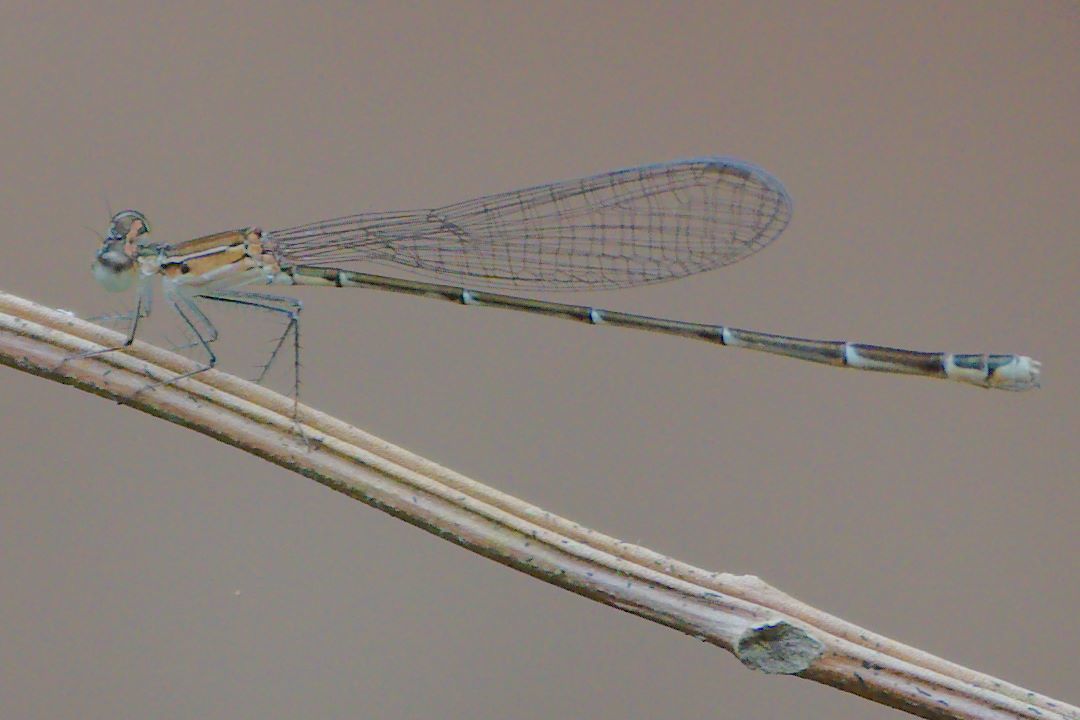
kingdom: Animalia
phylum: Arthropoda
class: Insecta
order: Odonata
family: Coenagrionidae
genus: Nehalennia
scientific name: Nehalennia pallidula
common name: Everglades sprite
